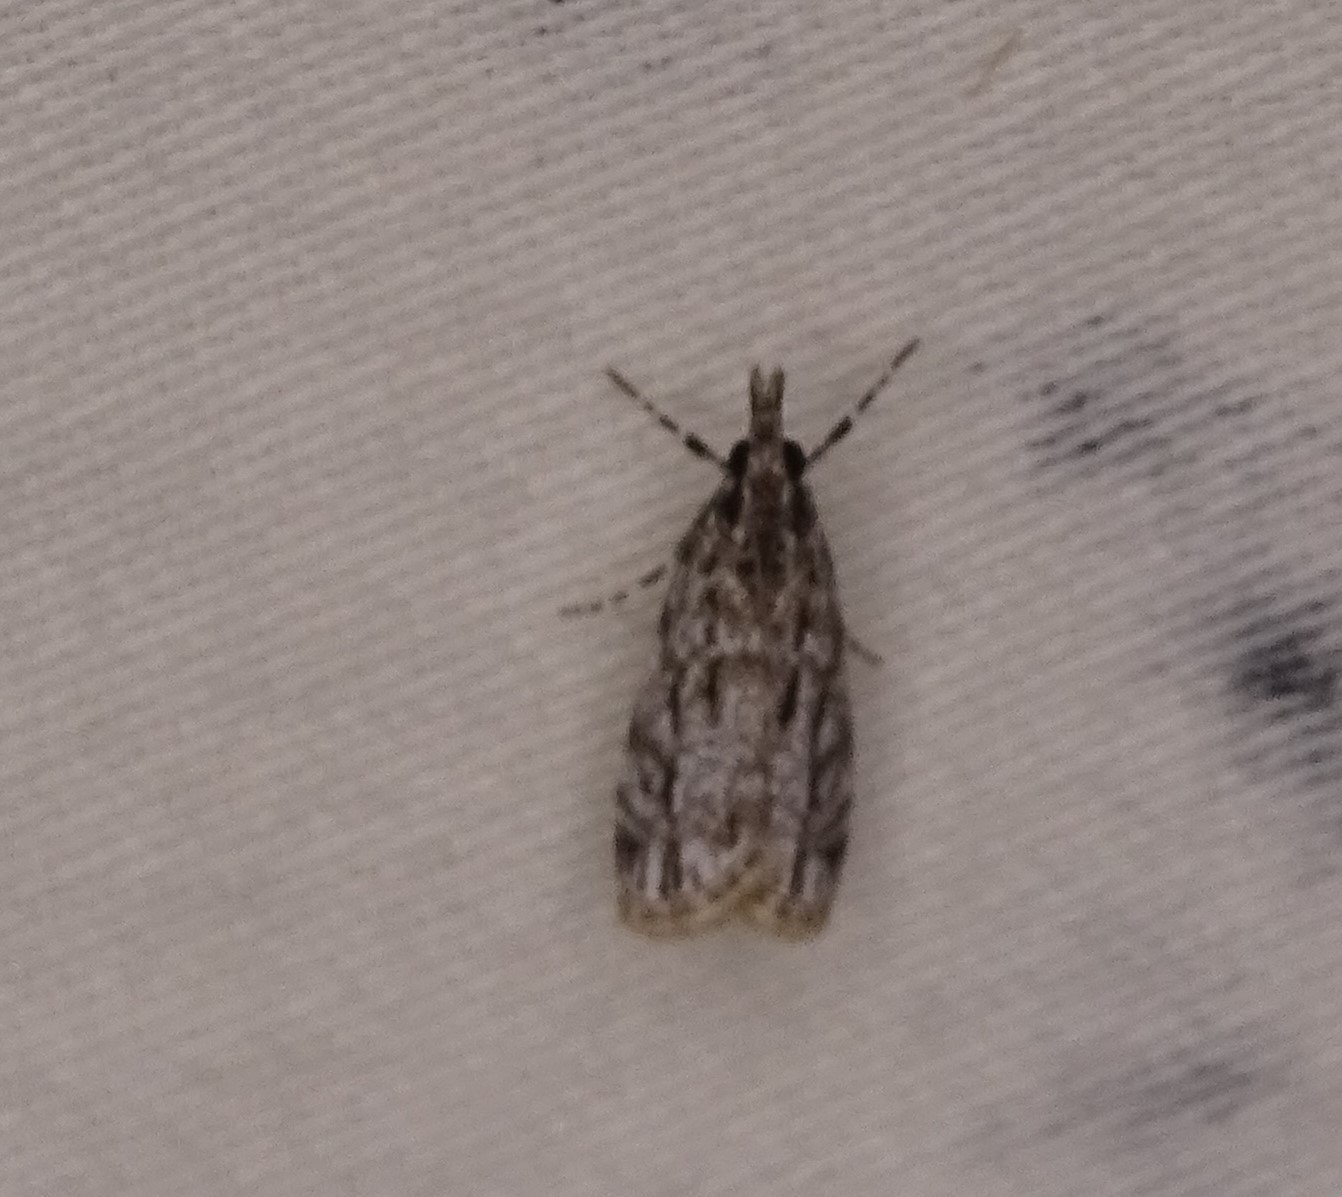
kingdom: Animalia
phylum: Arthropoda
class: Insecta
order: Lepidoptera
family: Crambidae
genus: Eudonia
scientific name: Eudonia strigalis
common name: Striped eudonia moth
